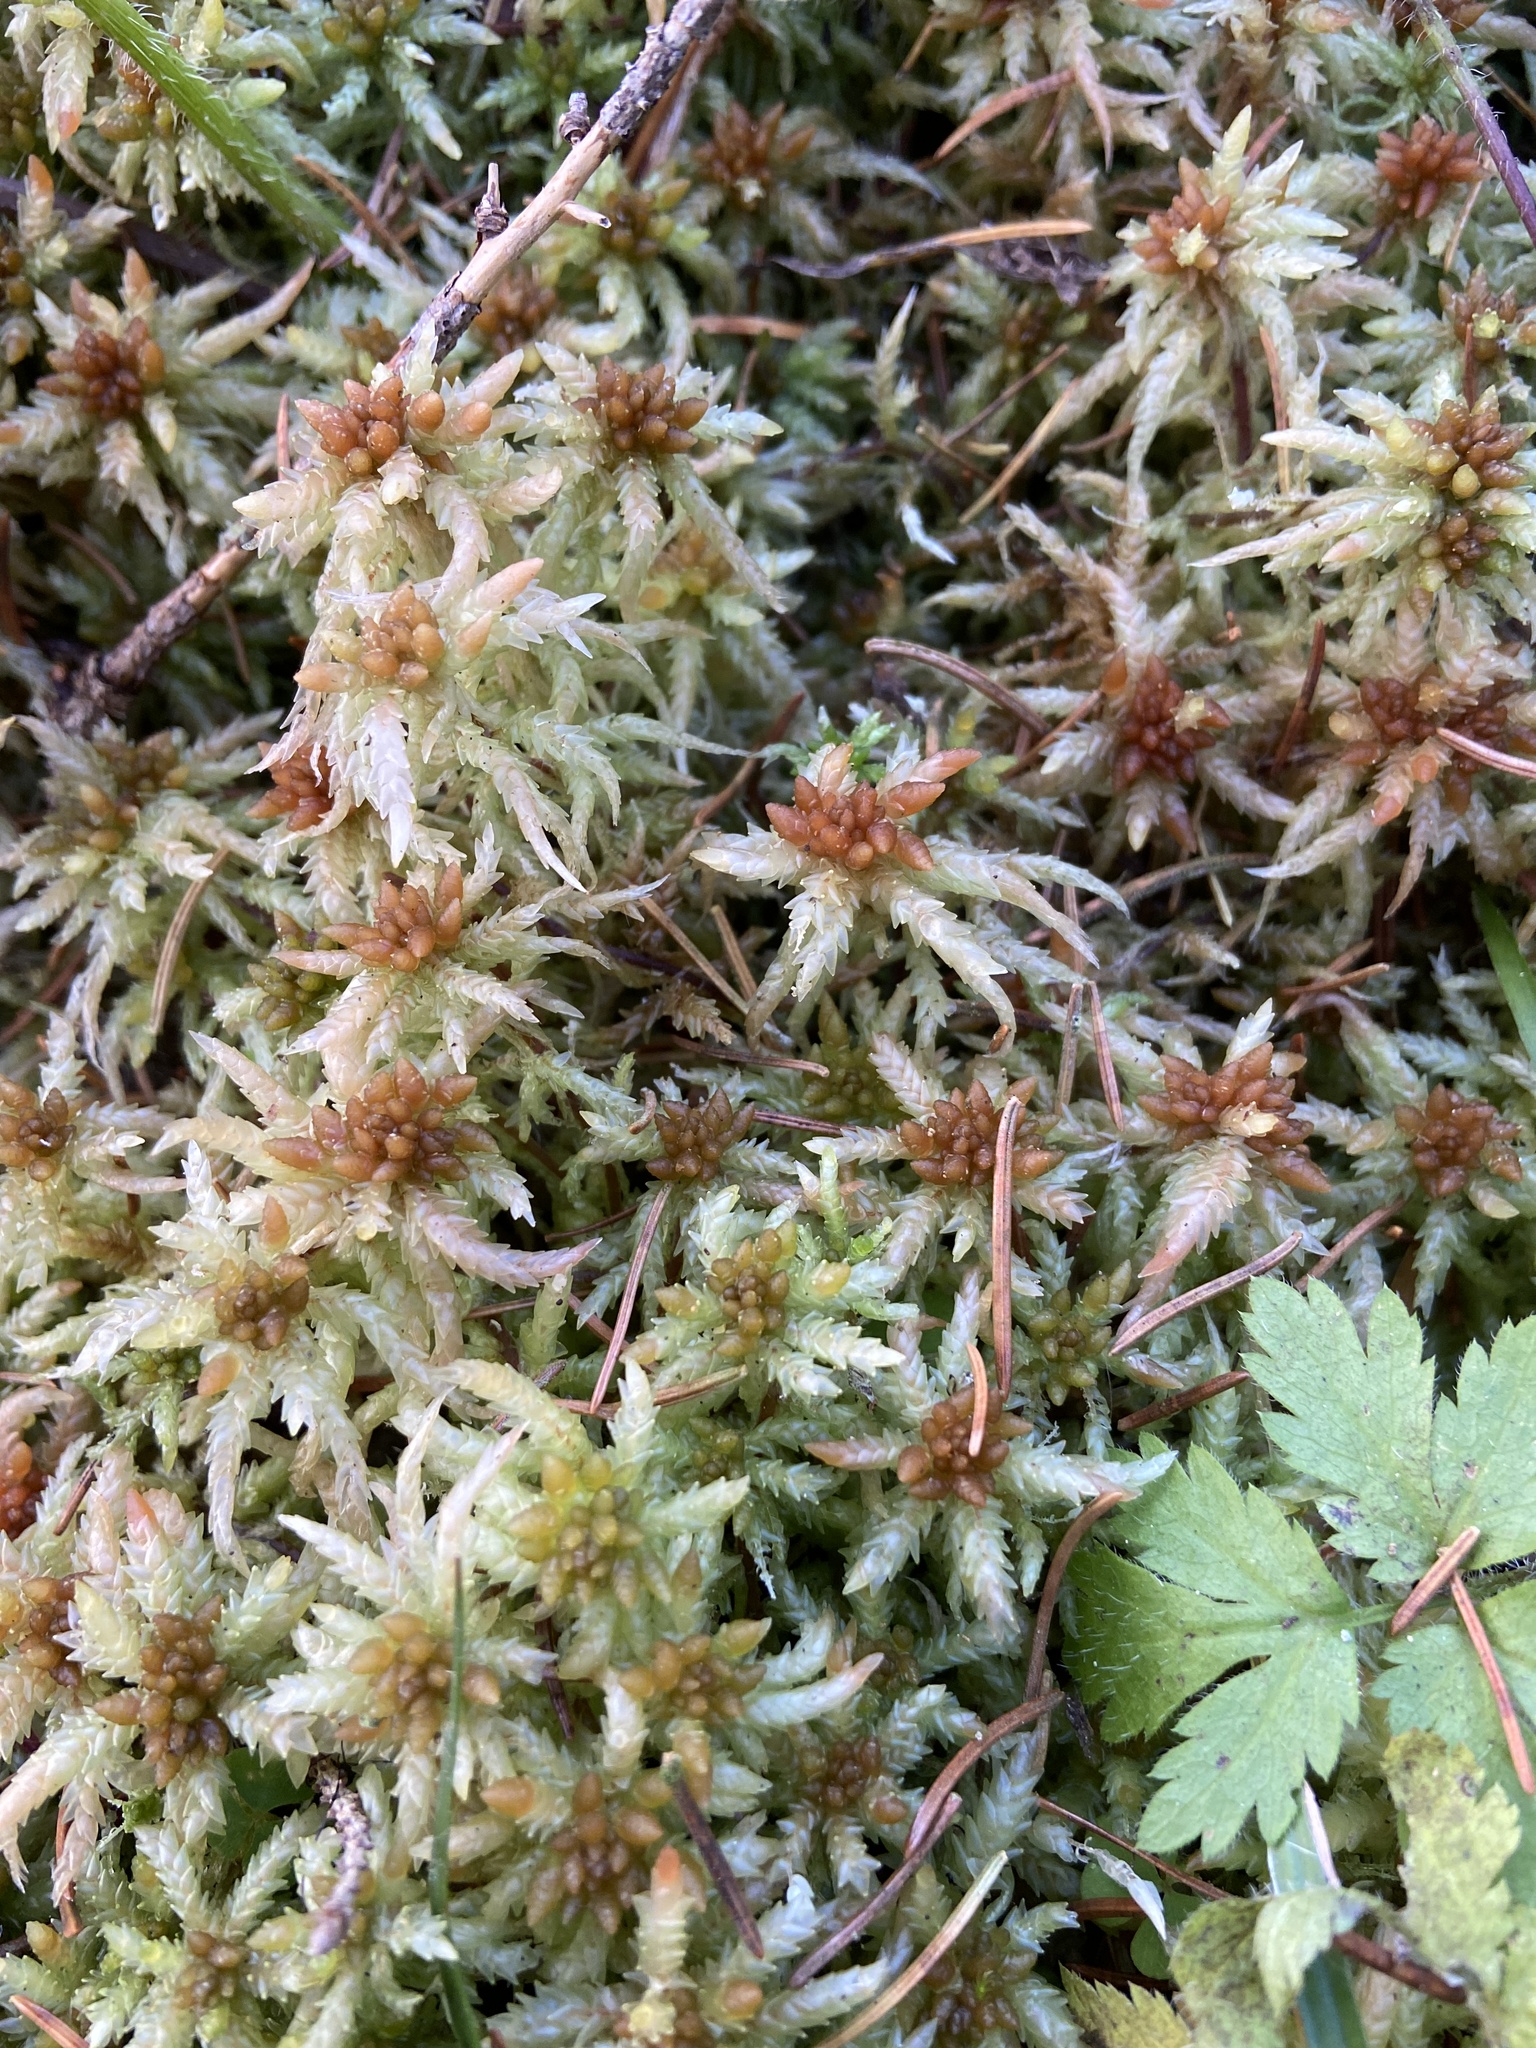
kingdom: Plantae
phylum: Bryophyta
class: Sphagnopsida
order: Sphagnales
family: Sphagnaceae
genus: Sphagnum
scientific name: Sphagnum palustre
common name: Blunt-leaved bog-moss
